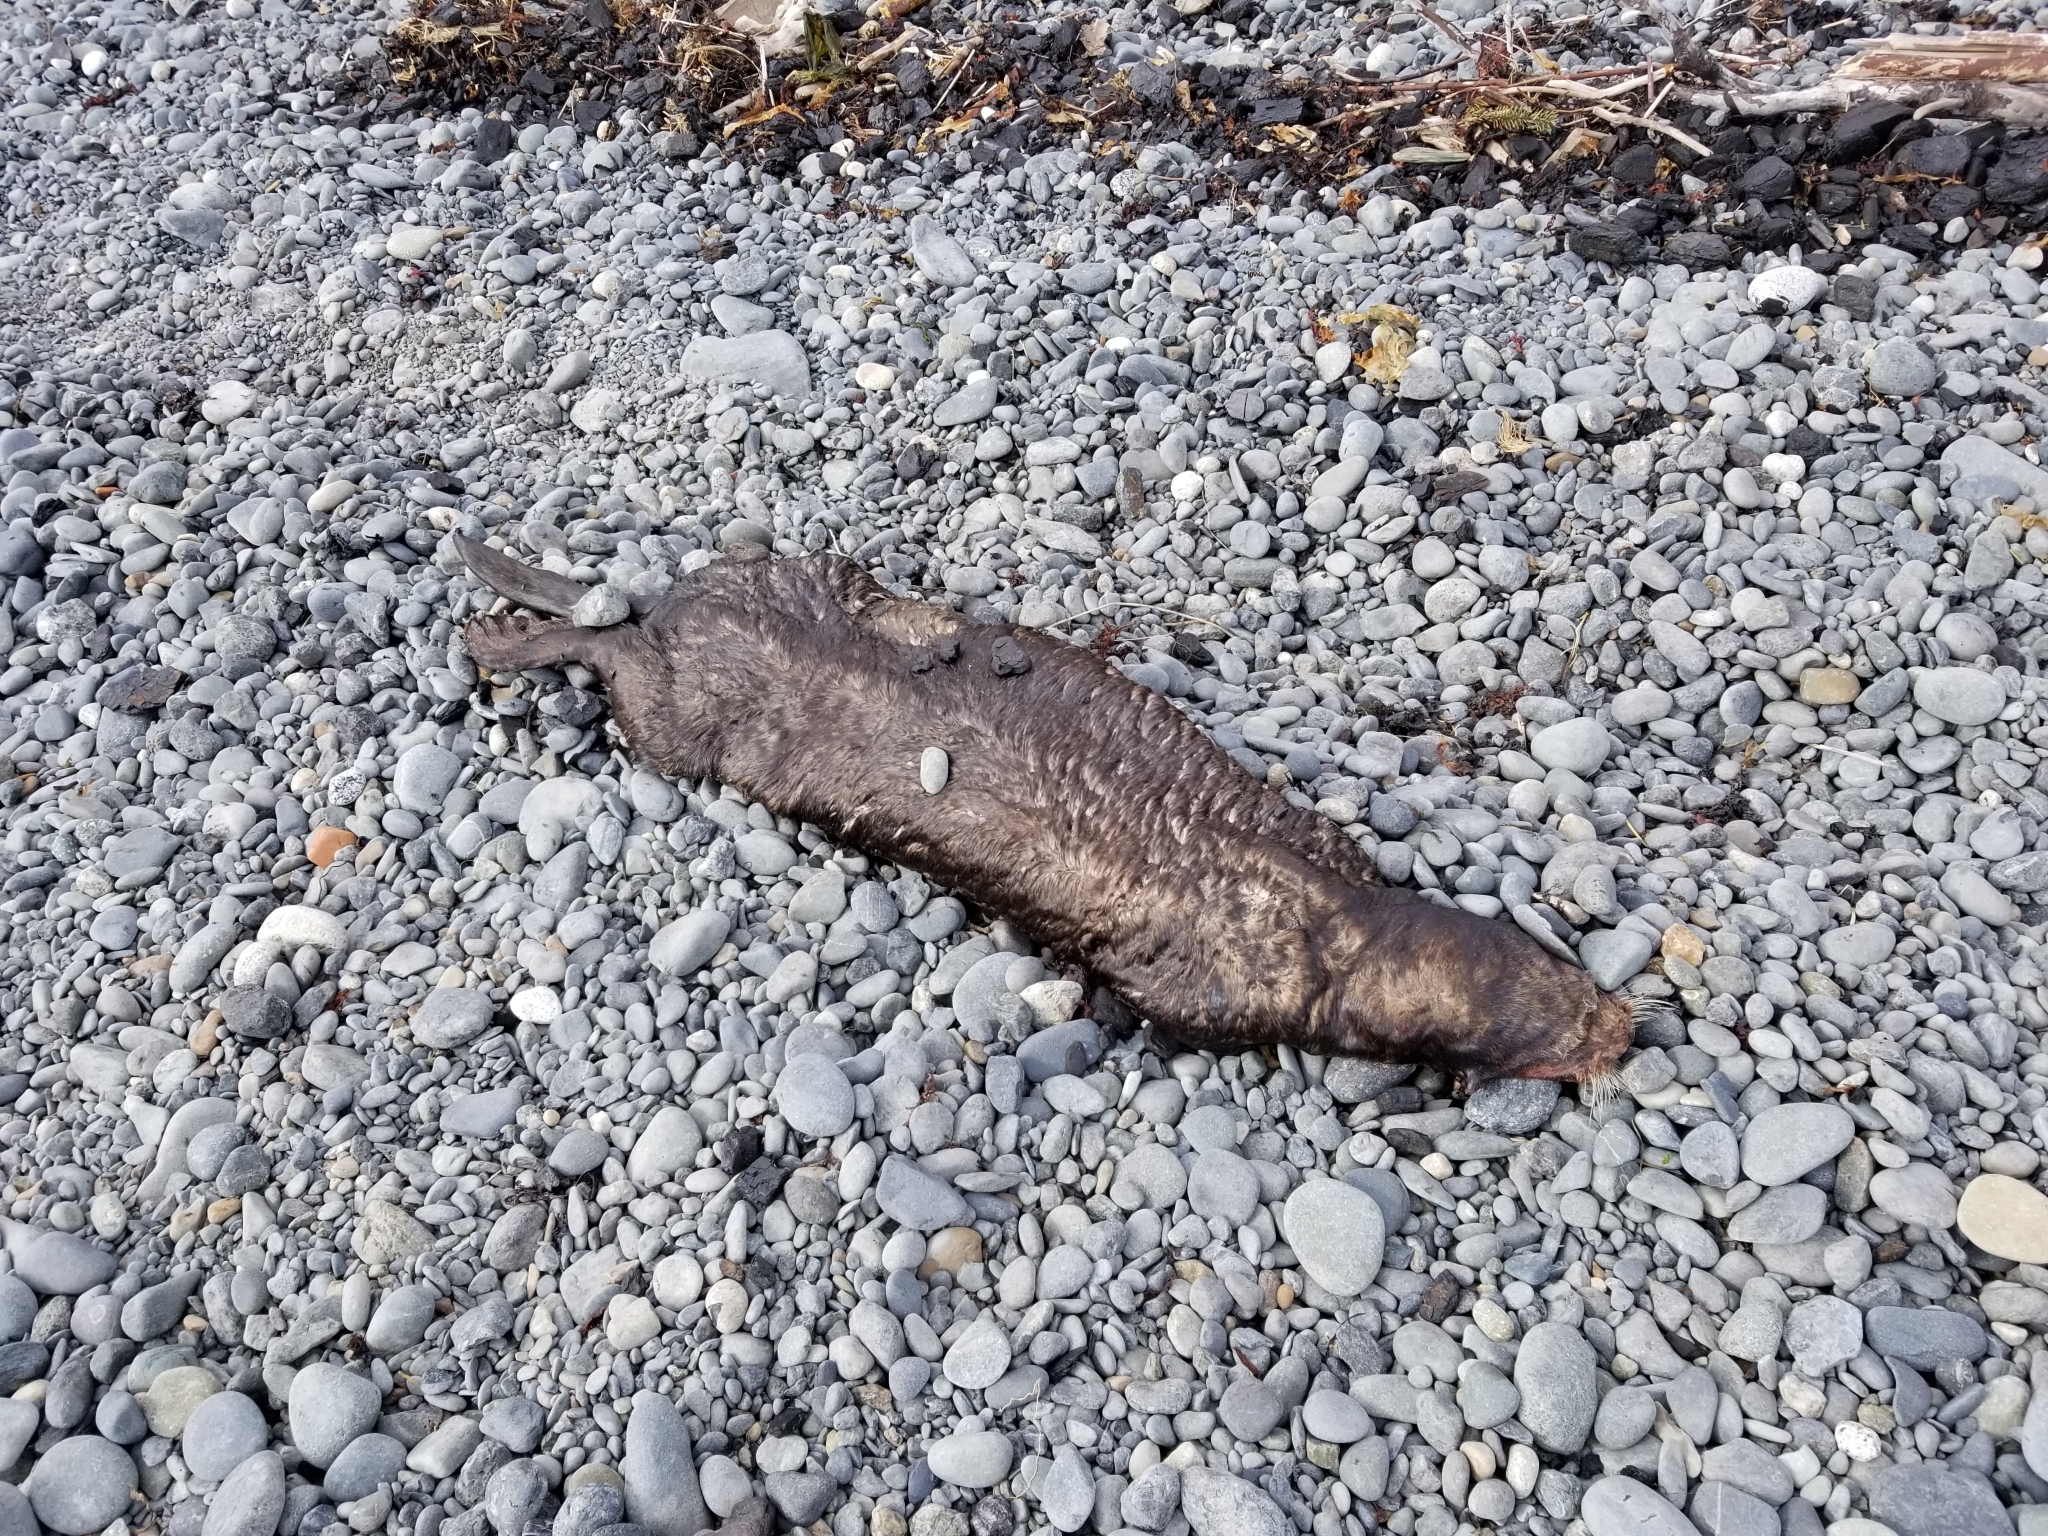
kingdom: Animalia
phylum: Chordata
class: Mammalia
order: Carnivora
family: Mustelidae
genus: Enhydra
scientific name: Enhydra lutris
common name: Sea otter
